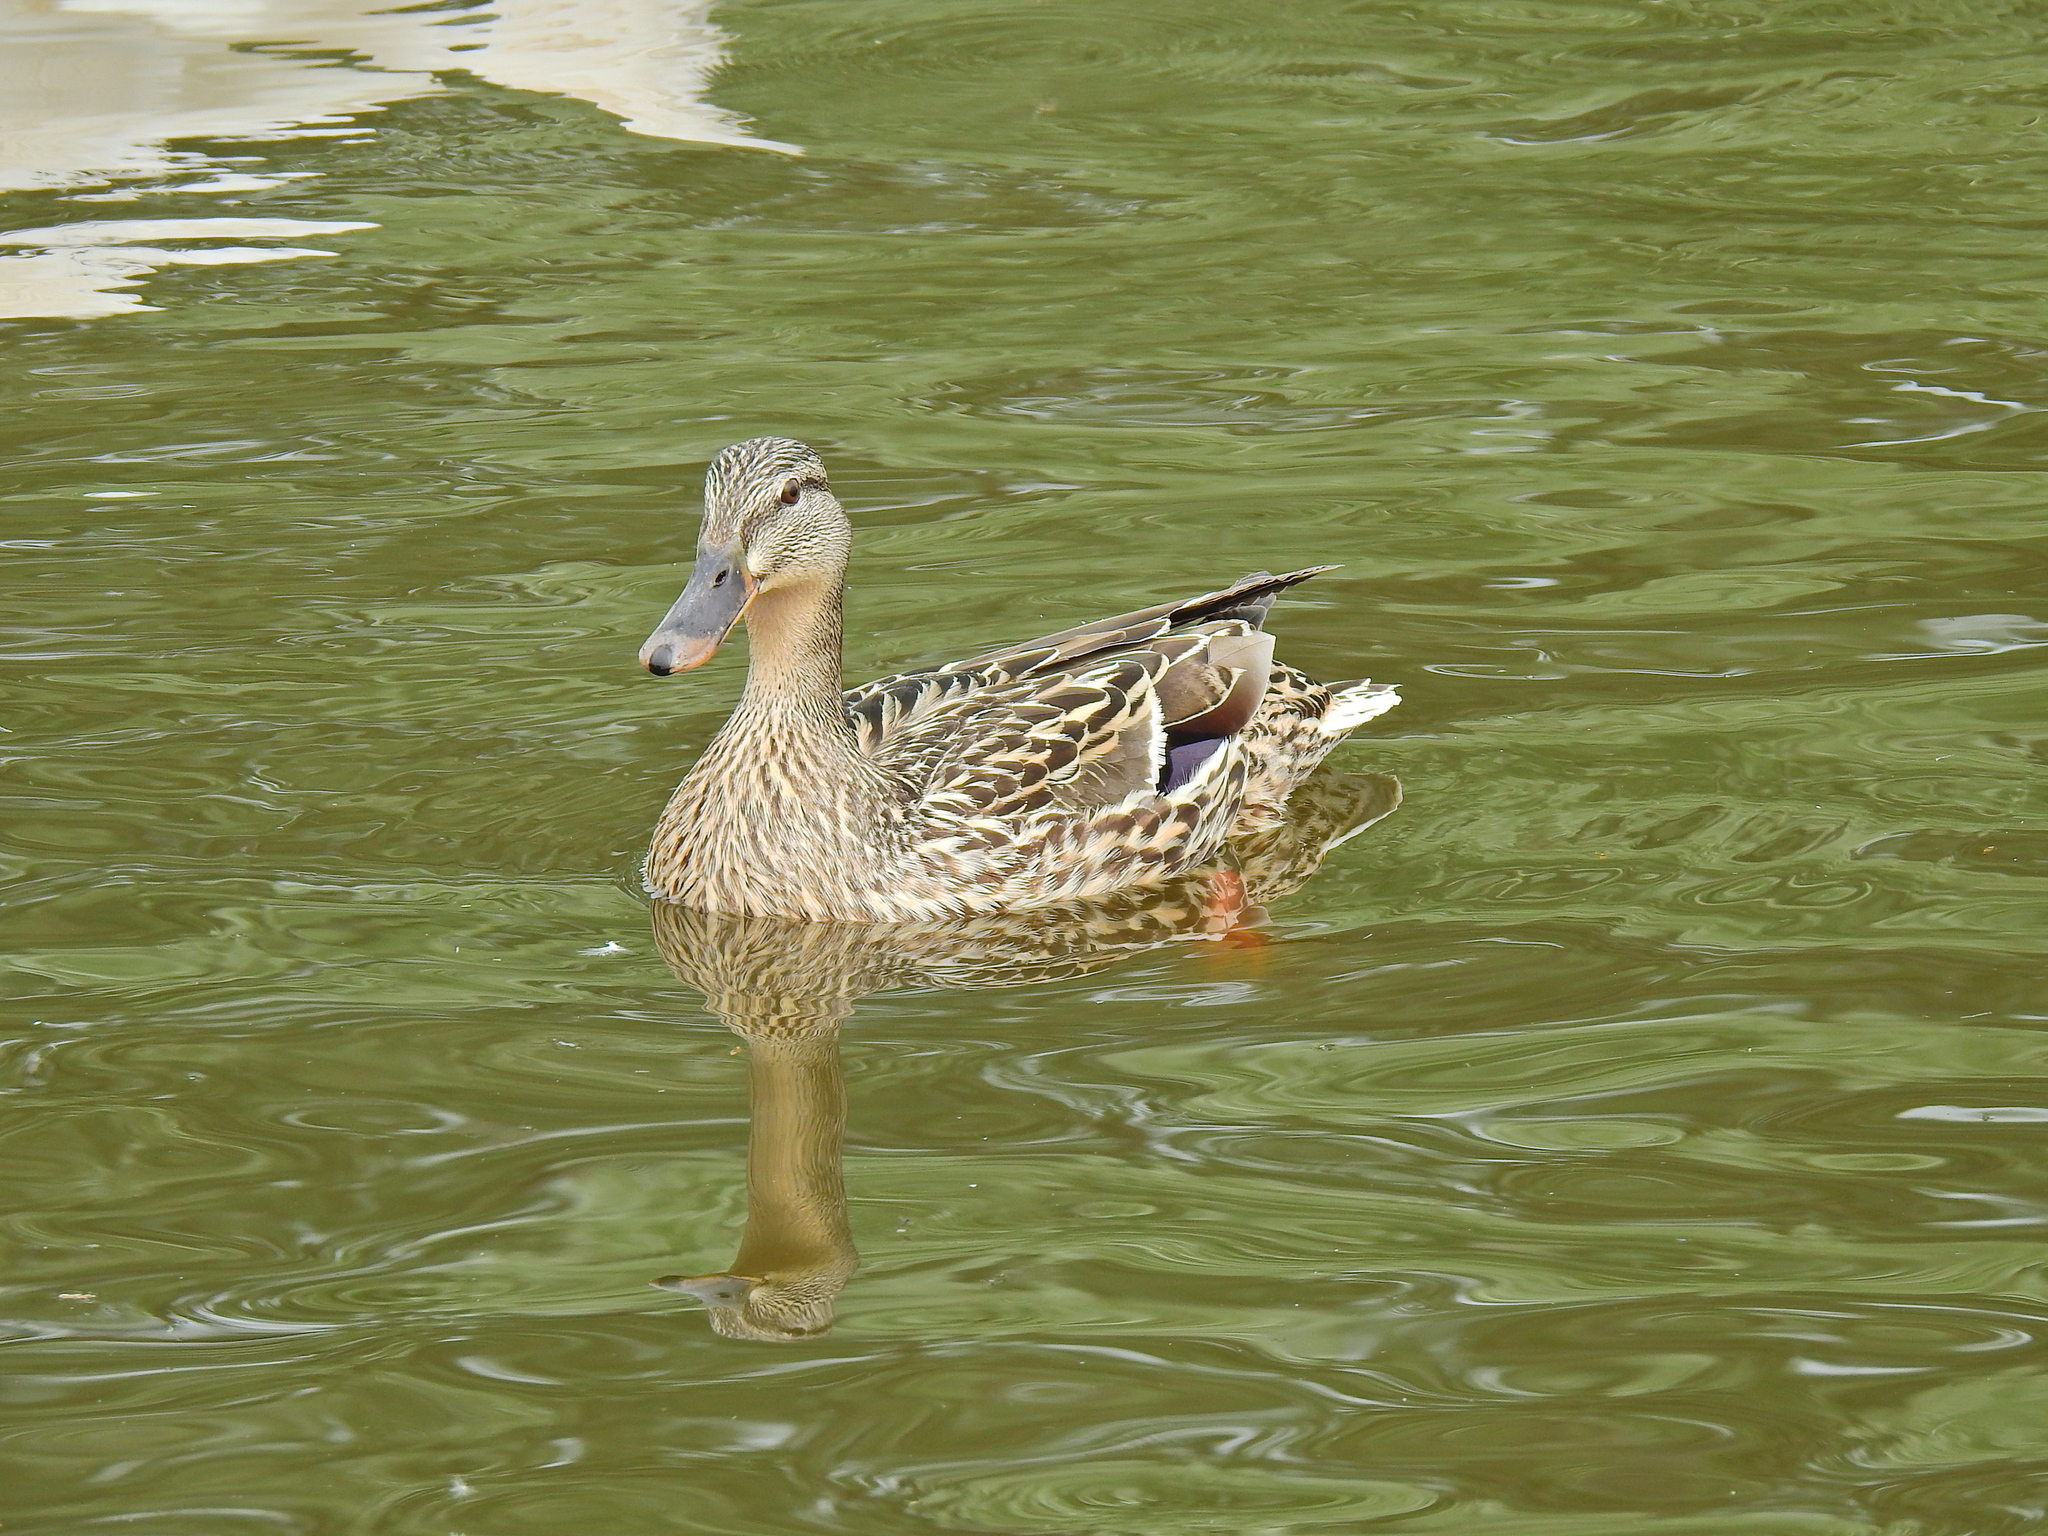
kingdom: Animalia
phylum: Chordata
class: Aves
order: Anseriformes
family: Anatidae
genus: Anas
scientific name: Anas platyrhynchos
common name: Mallard
